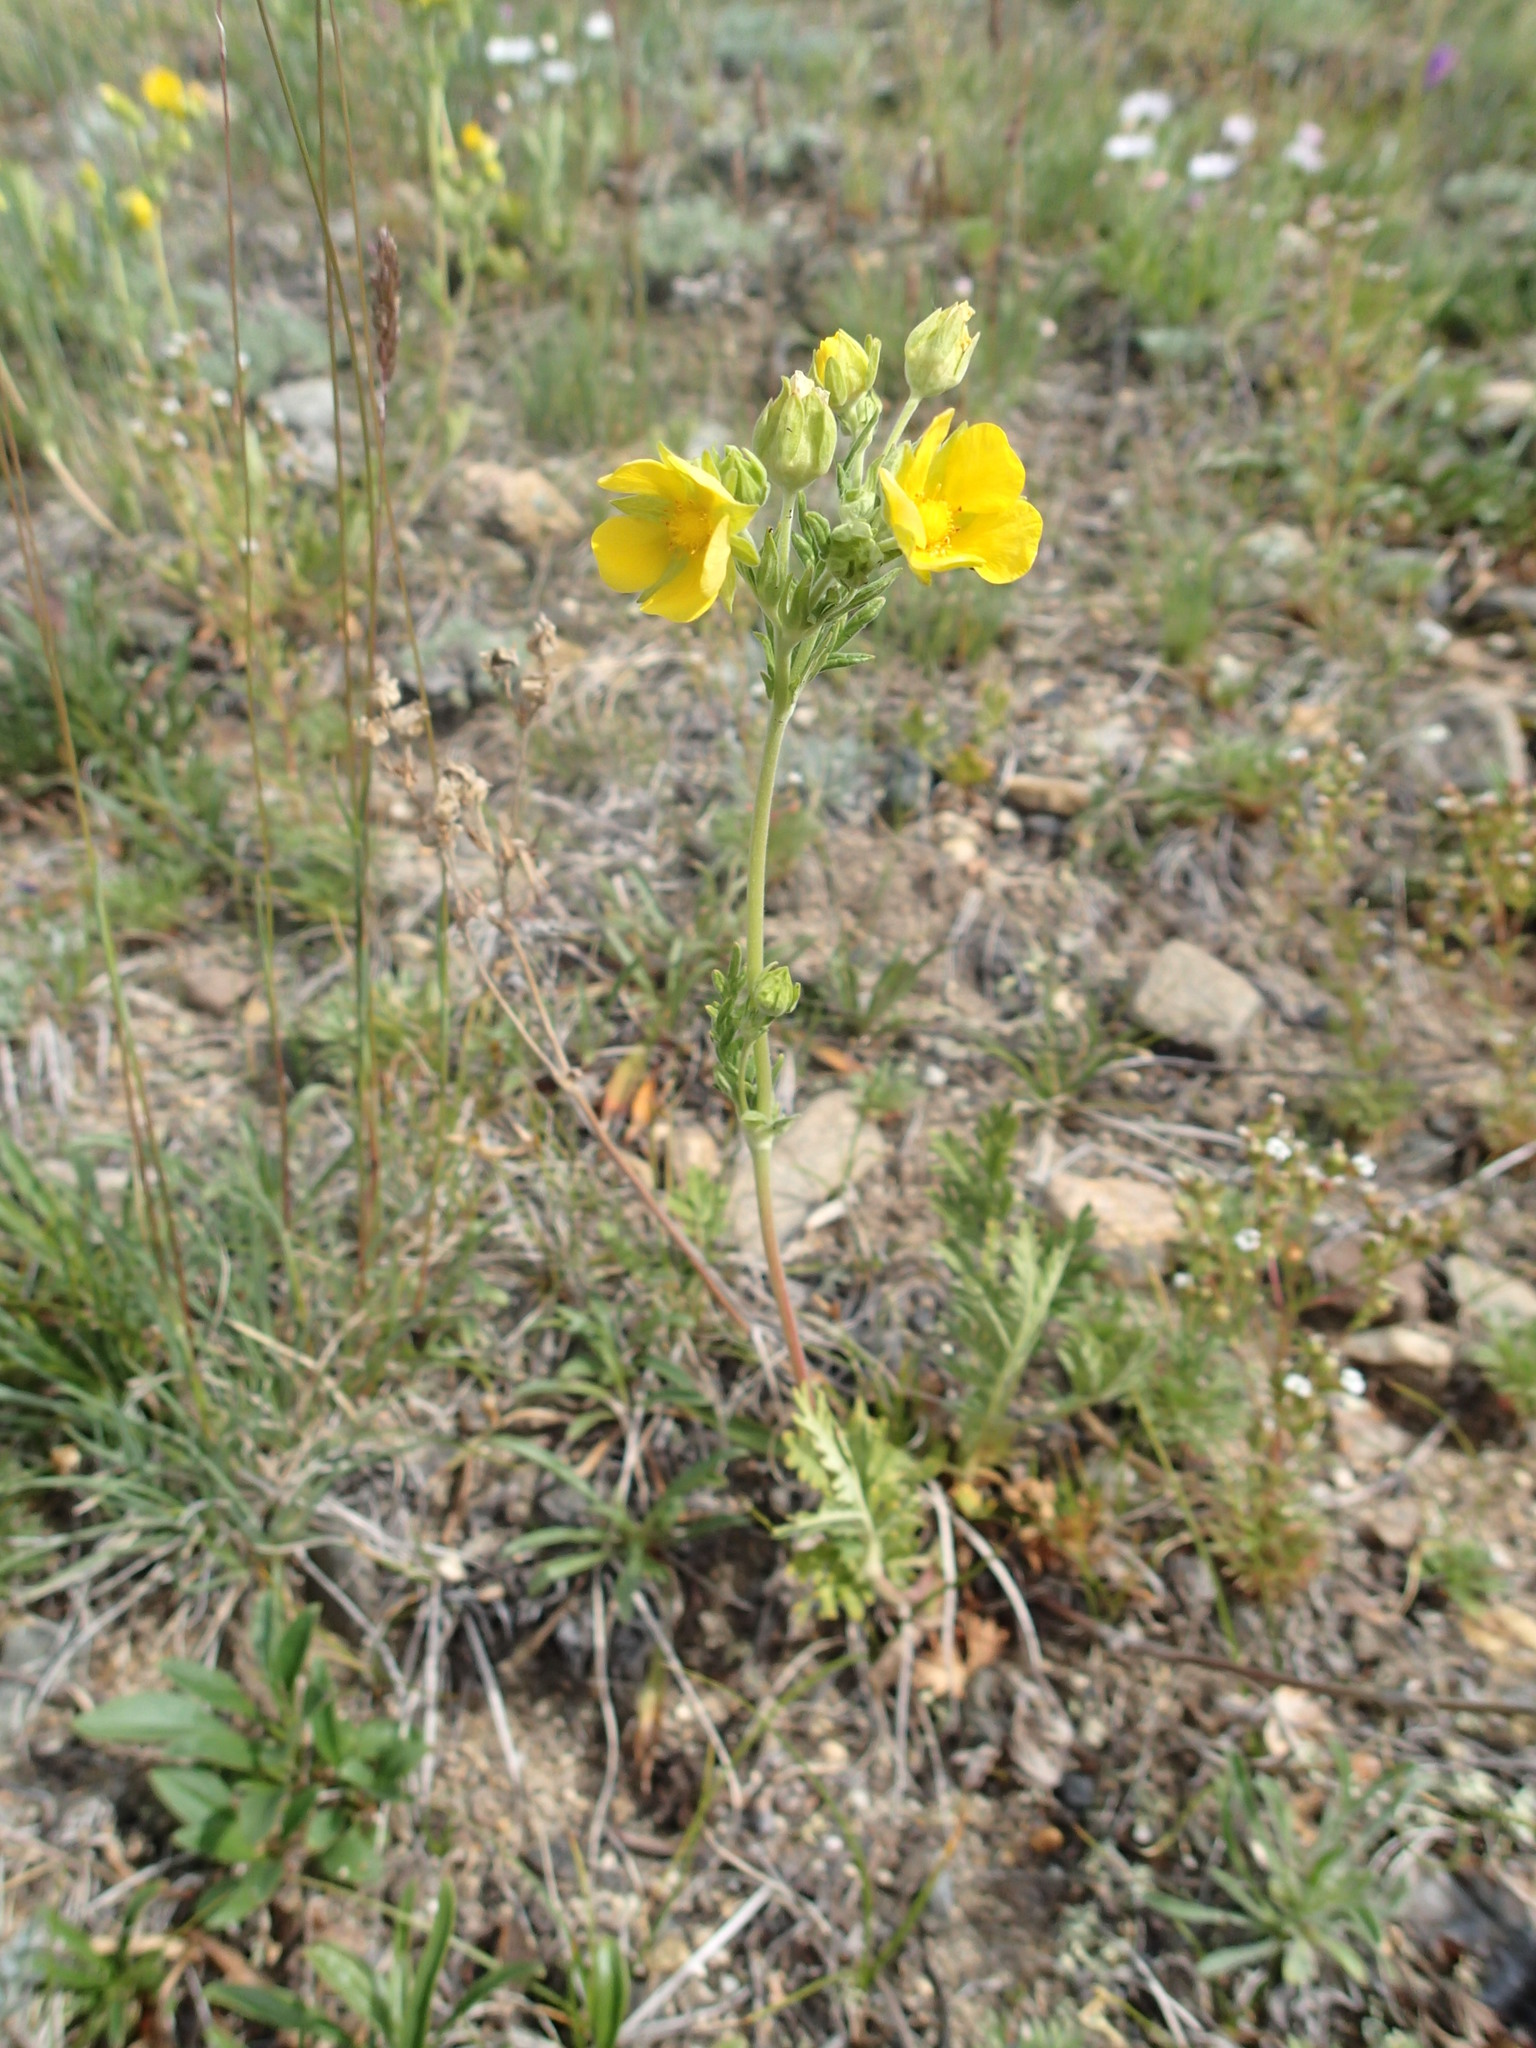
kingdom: Plantae
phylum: Tracheophyta
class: Magnoliopsida
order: Rosales
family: Rosaceae
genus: Potentilla
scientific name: Potentilla pensylvanica
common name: Pennsylvania cinquefoil
